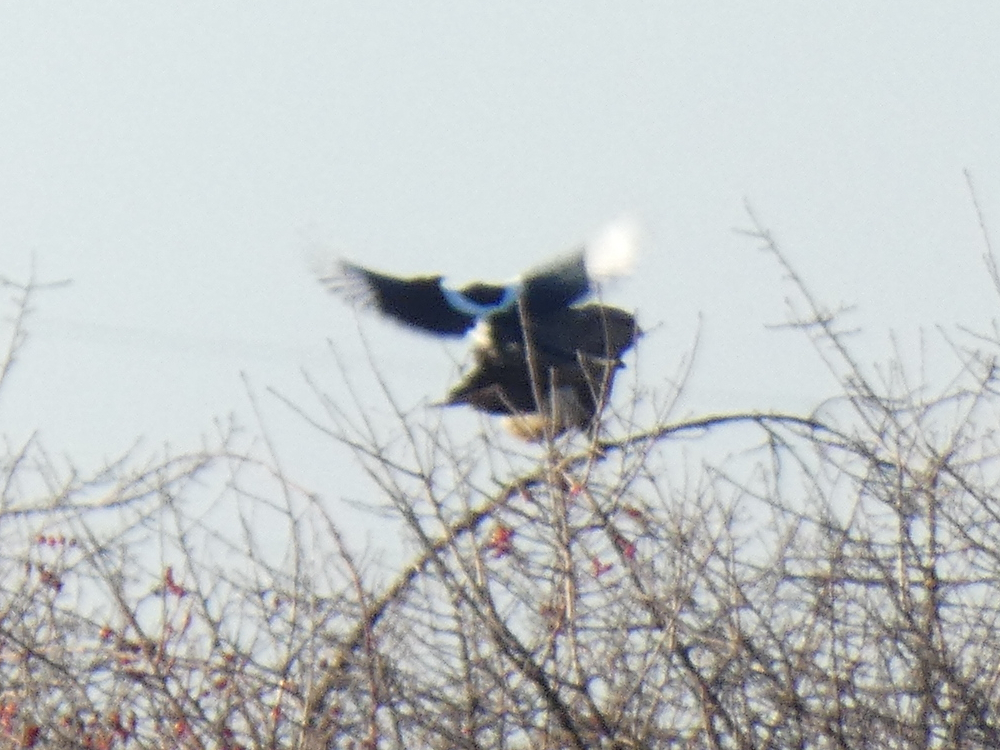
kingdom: Animalia
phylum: Chordata
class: Aves
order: Passeriformes
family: Corvidae
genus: Pica
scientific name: Pica pica
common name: Eurasian magpie
